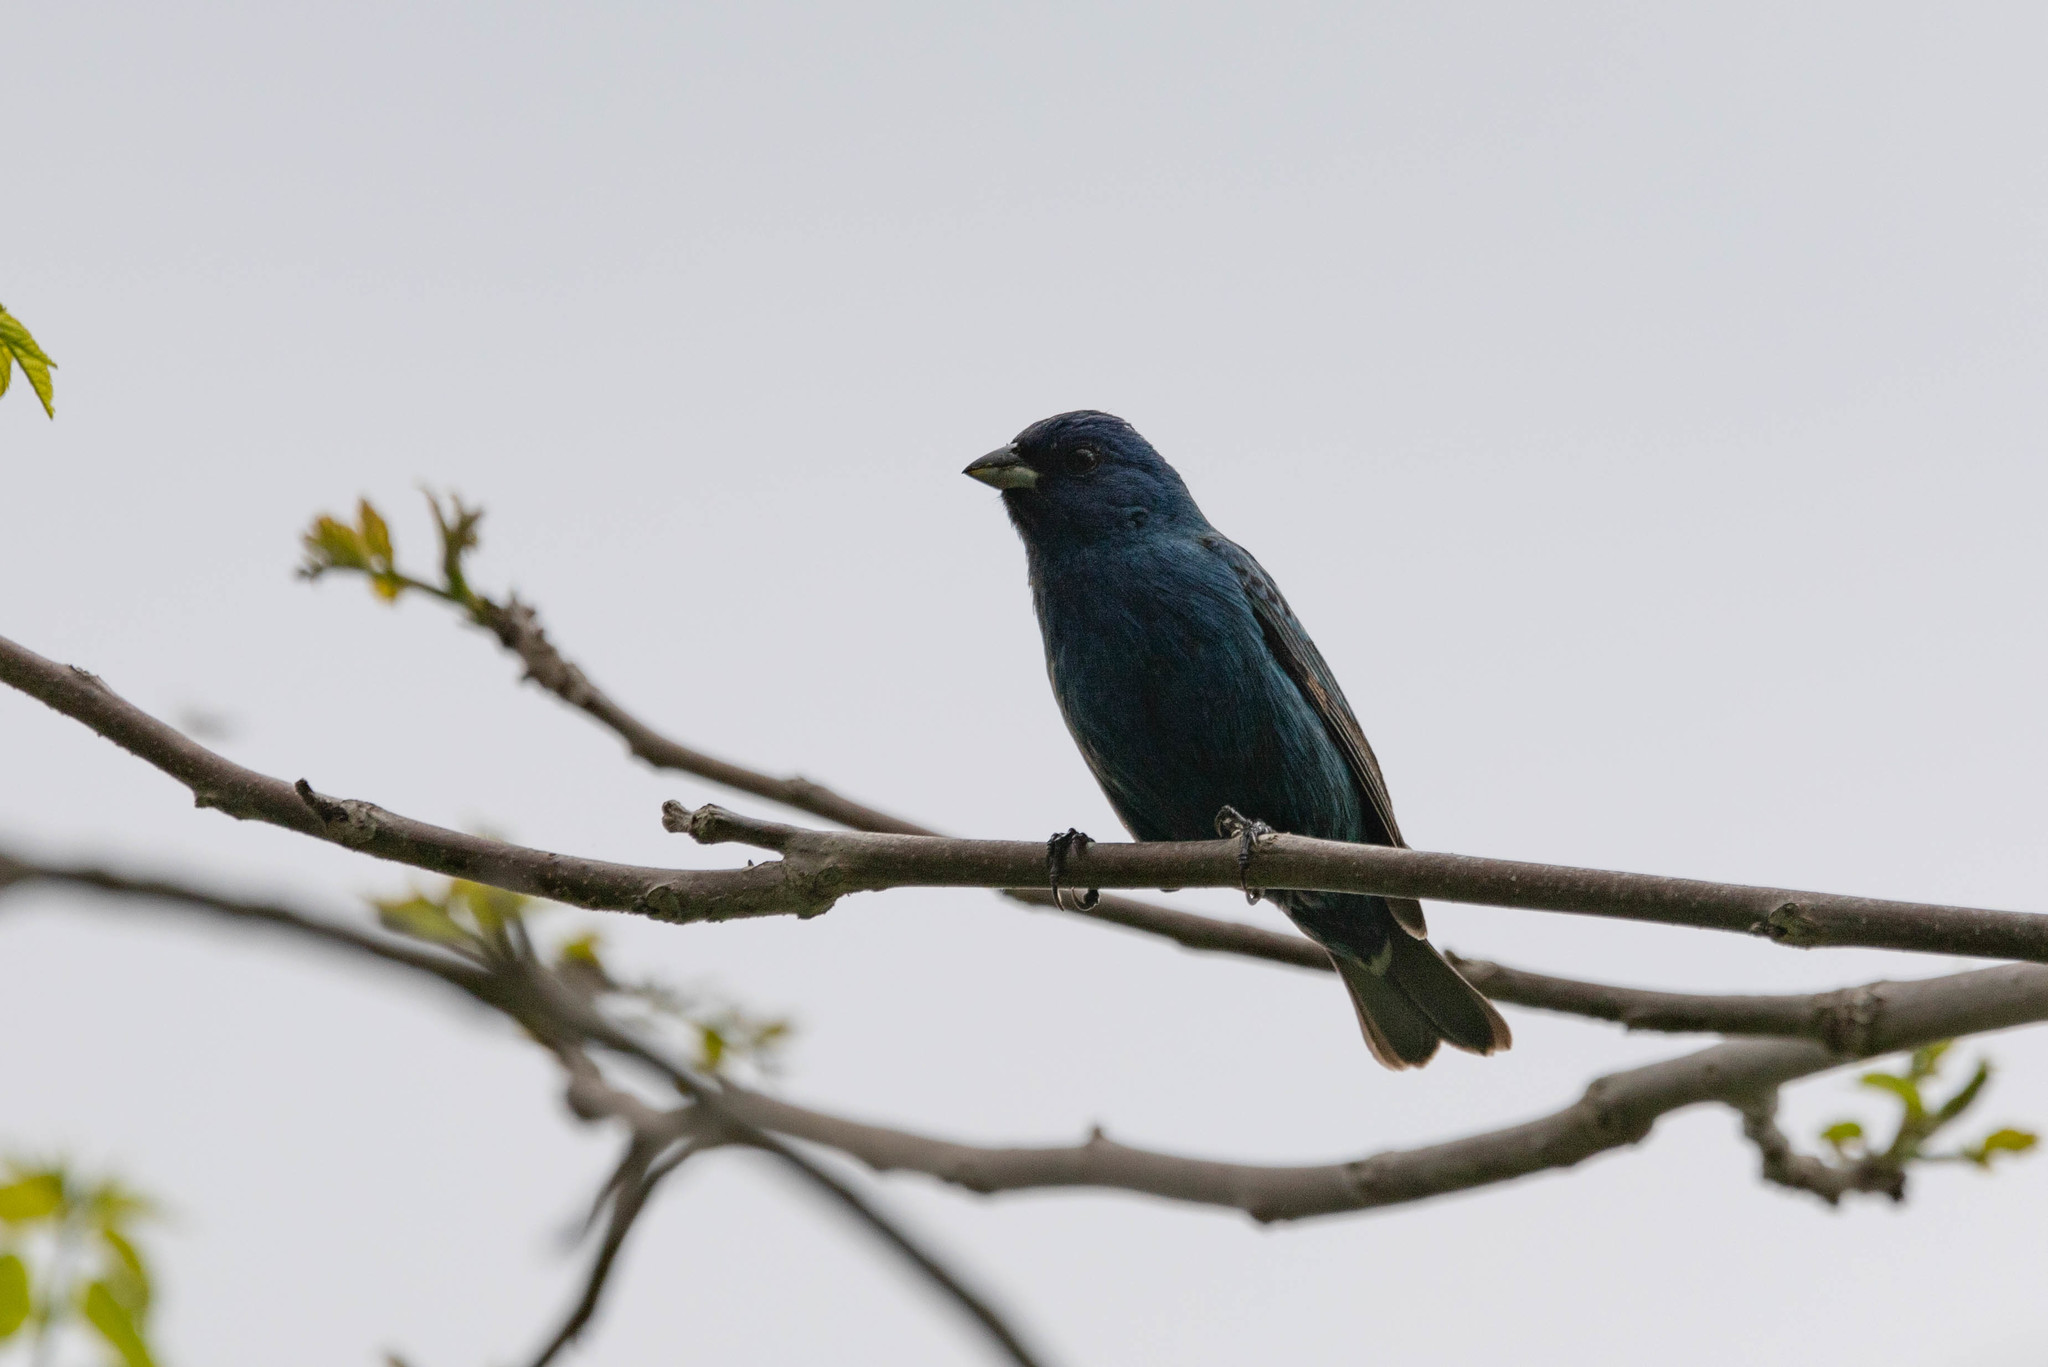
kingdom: Animalia
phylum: Chordata
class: Aves
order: Passeriformes
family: Cardinalidae
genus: Passerina
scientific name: Passerina cyanea
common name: Indigo bunting
